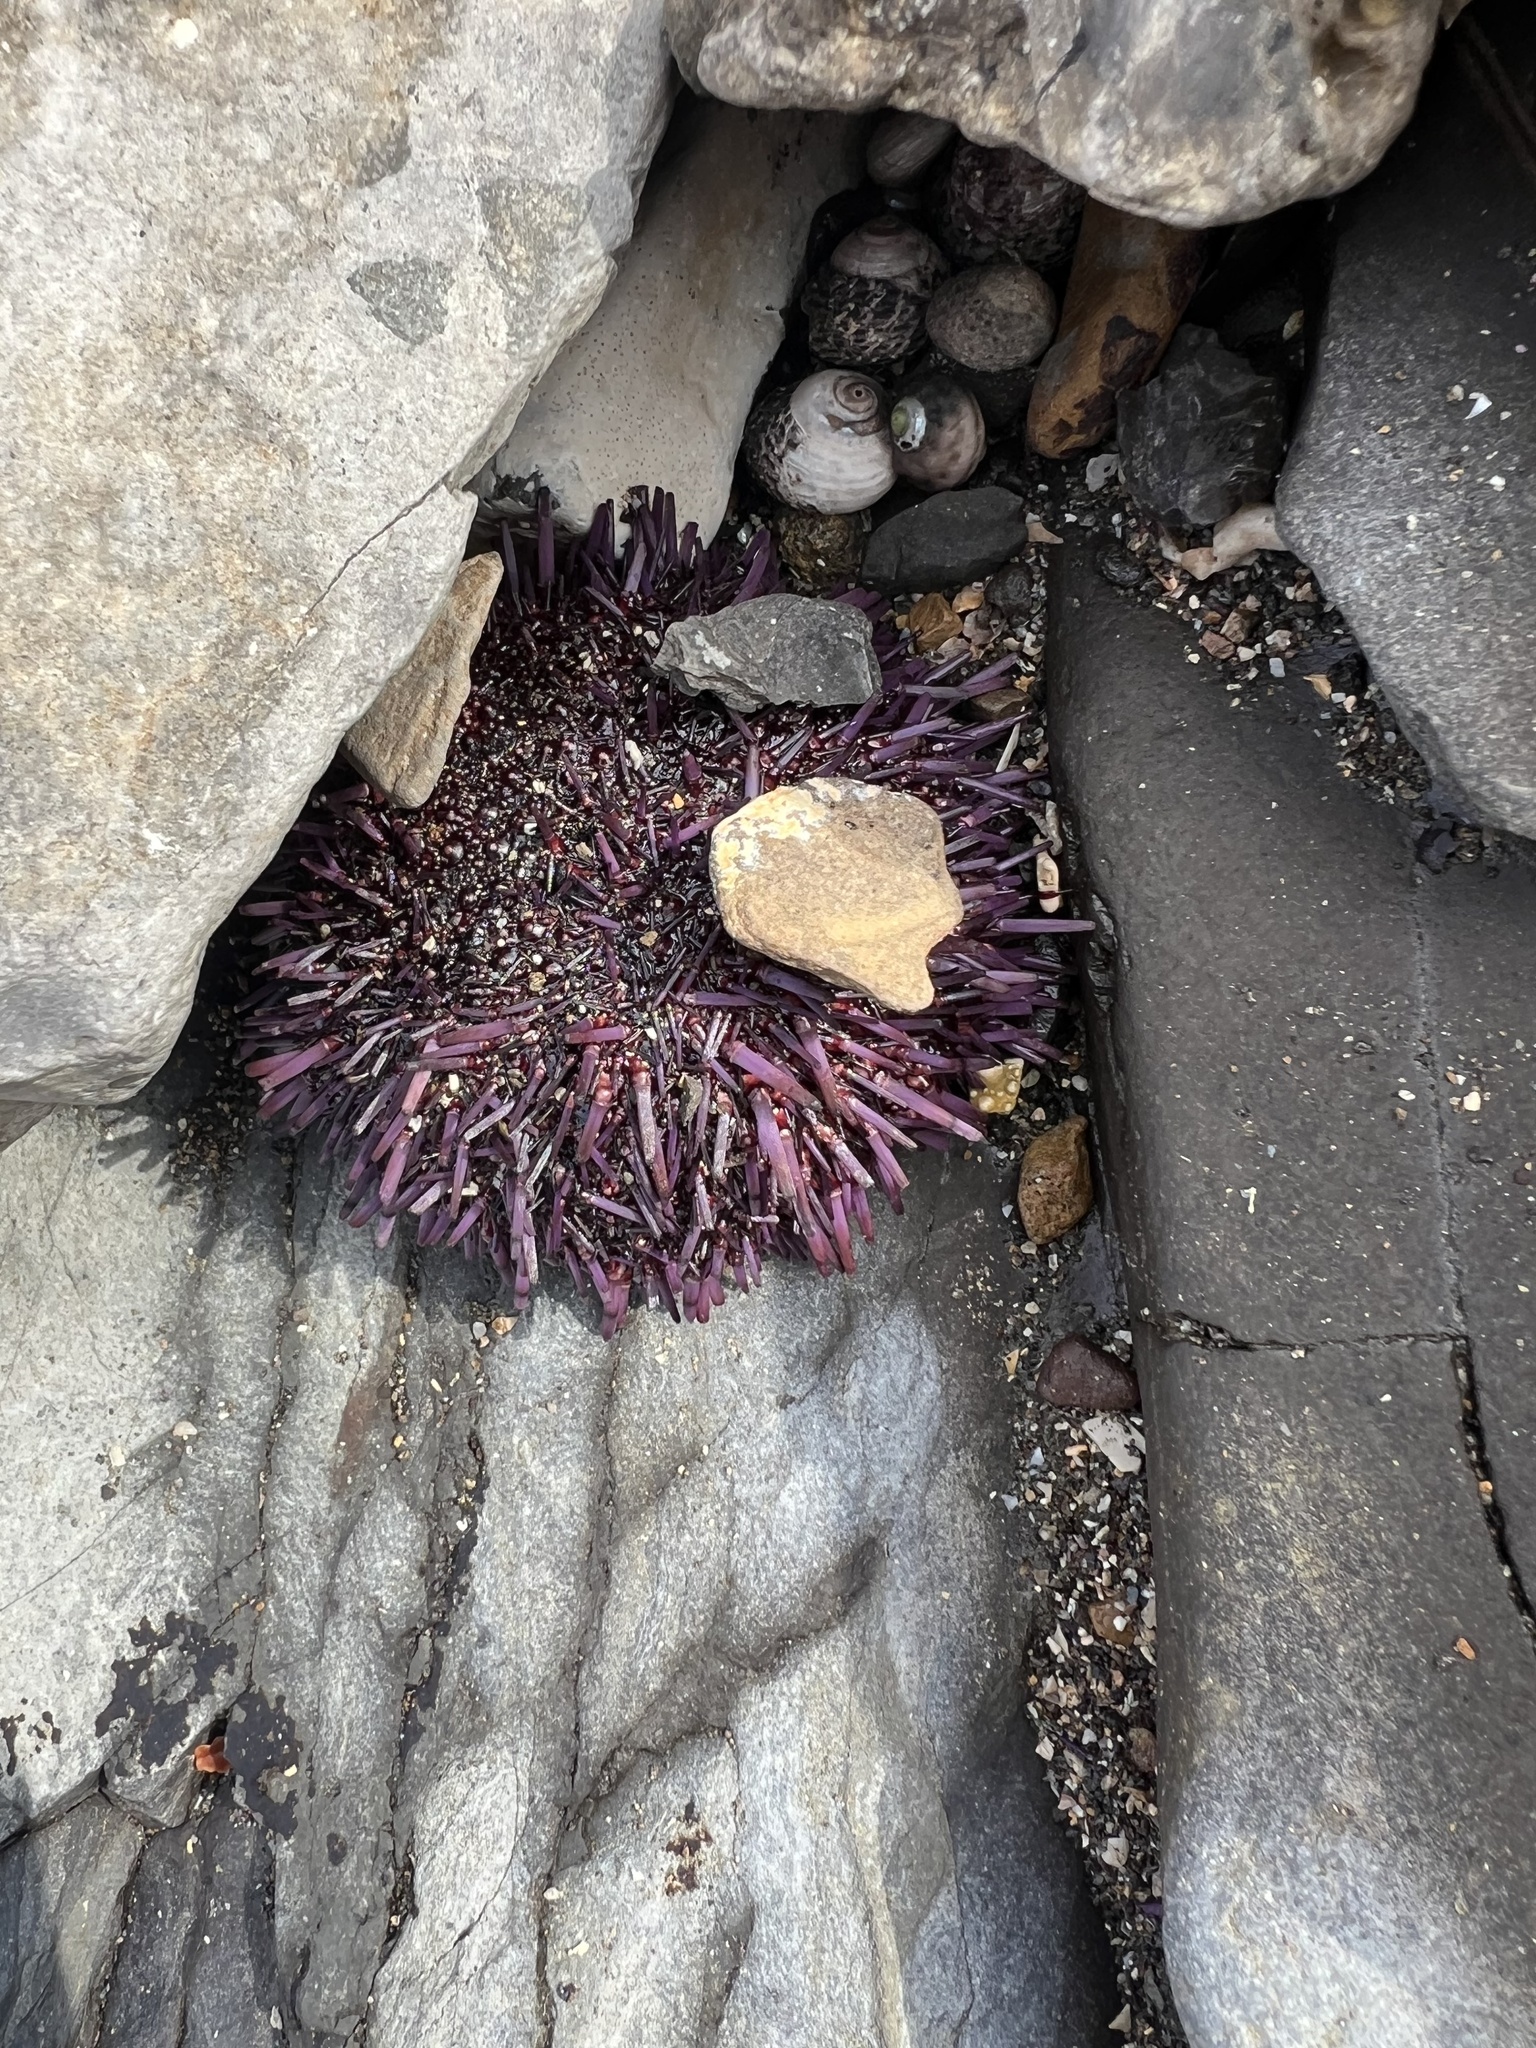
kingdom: Animalia
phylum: Echinodermata
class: Echinoidea
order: Camarodonta
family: Strongylocentrotidae
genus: Strongylocentrotus
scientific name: Strongylocentrotus purpuratus
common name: Purple sea urchin
